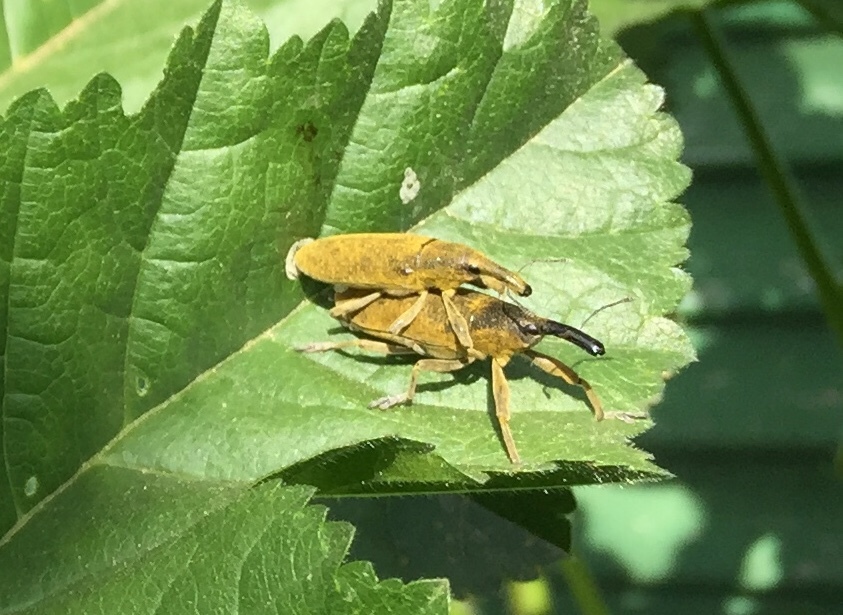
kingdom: Animalia
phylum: Arthropoda
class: Insecta
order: Coleoptera
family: Curculionidae
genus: Lixus
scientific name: Lixus pulverulentus
